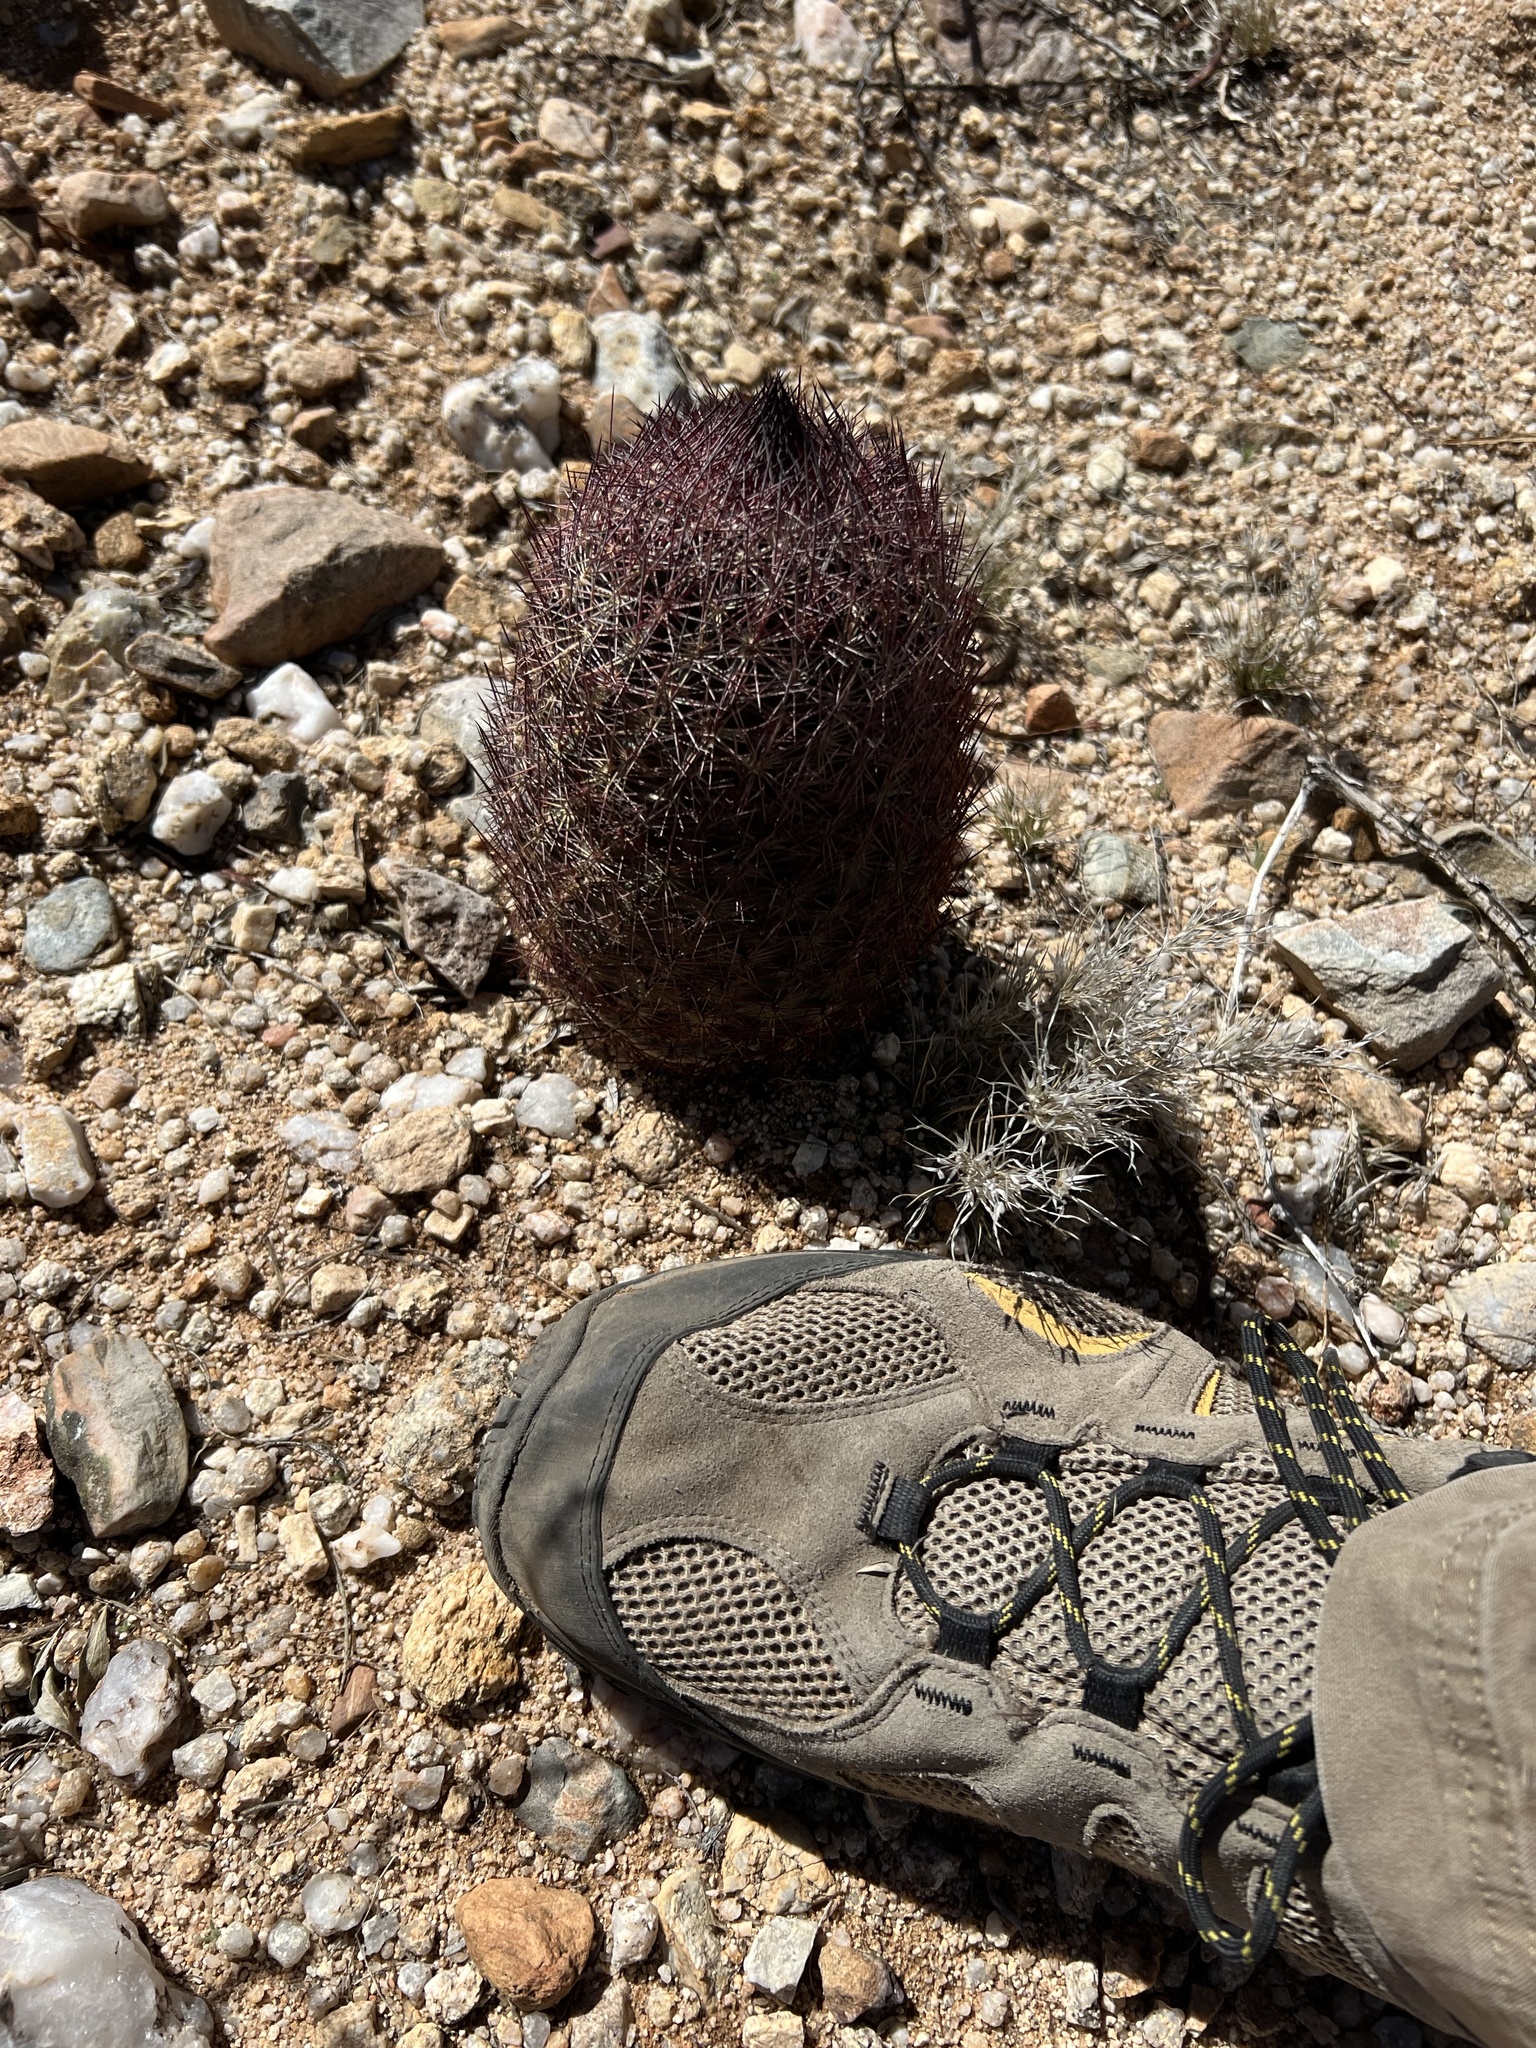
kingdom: Plantae
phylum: Tracheophyta
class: Magnoliopsida
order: Caryophyllales
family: Cactaceae
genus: Sclerocactus
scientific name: Sclerocactus johnsonii
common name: Eight-spine fishhook cactus
